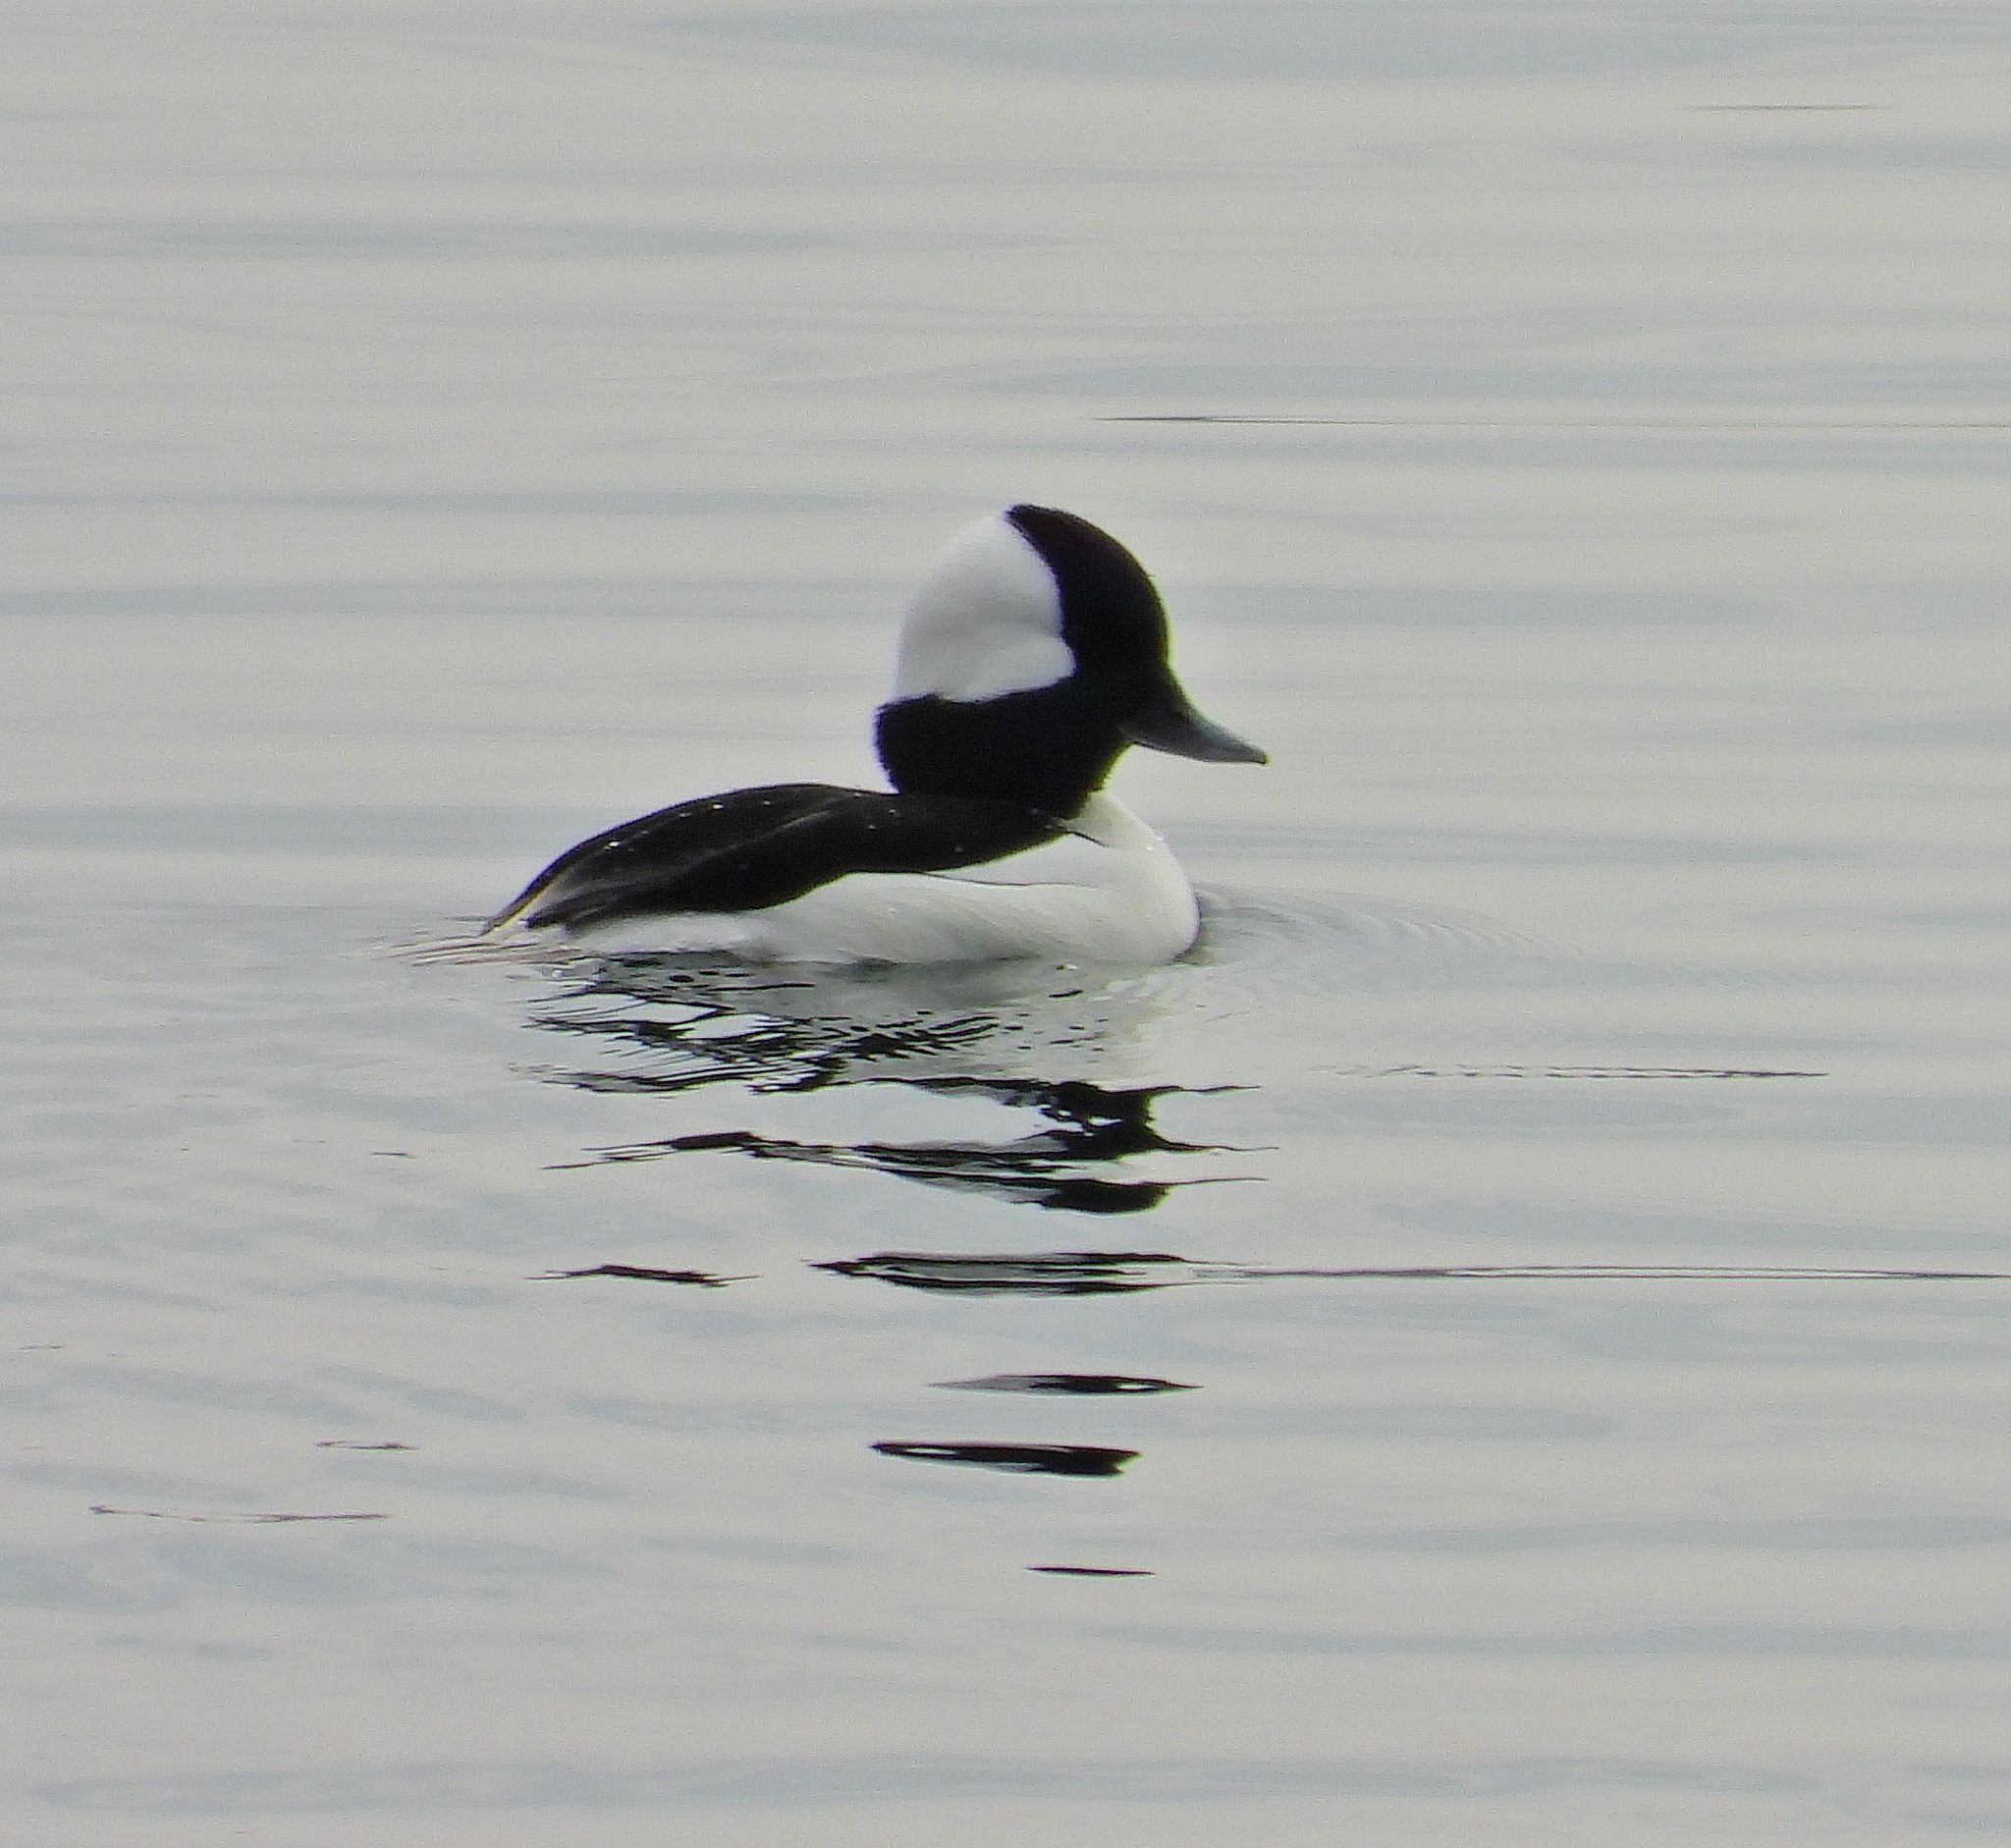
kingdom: Animalia
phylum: Chordata
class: Aves
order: Anseriformes
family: Anatidae
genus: Bucephala
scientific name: Bucephala albeola
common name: Bufflehead
